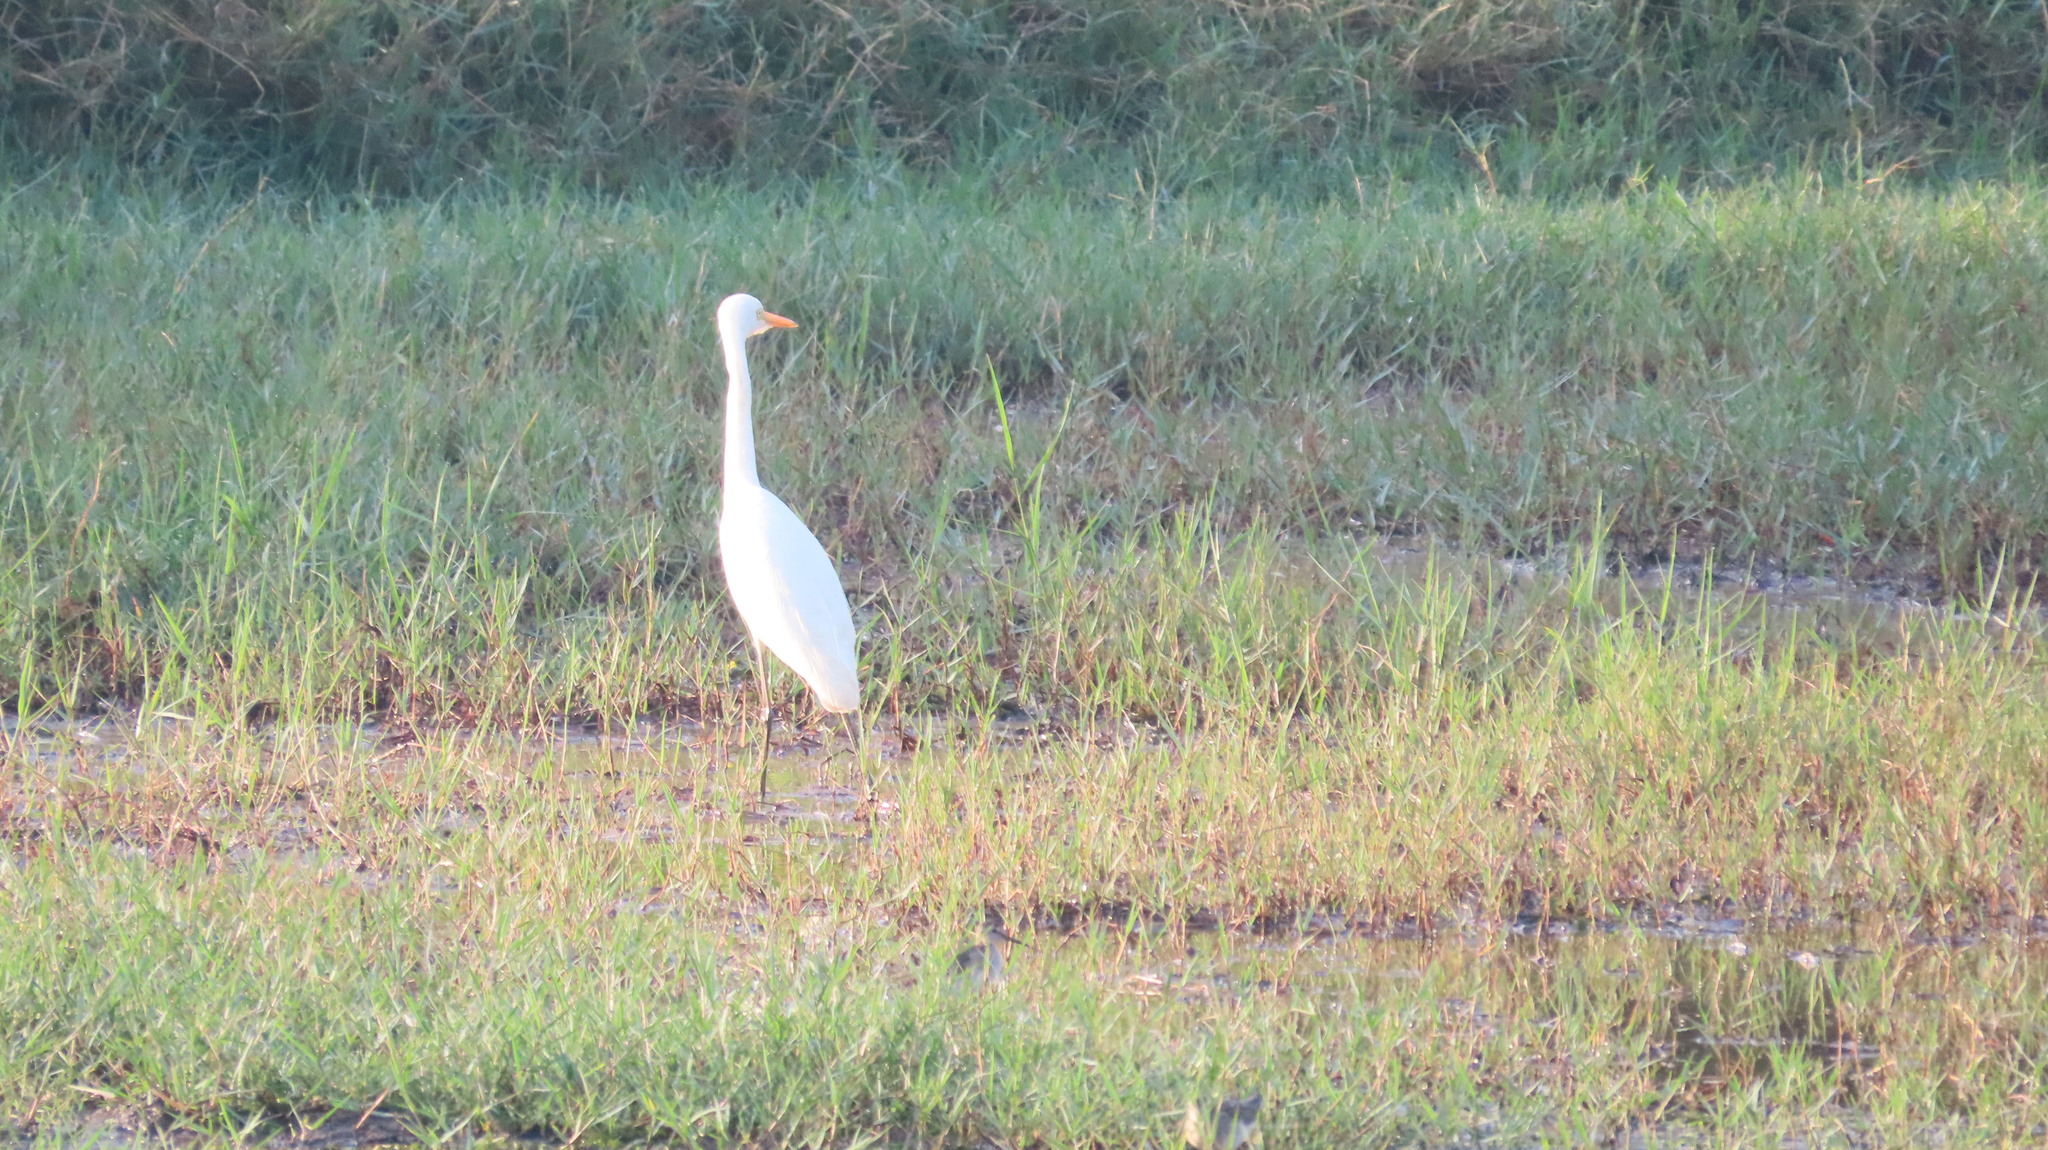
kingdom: Animalia
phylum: Chordata
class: Aves
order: Pelecaniformes
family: Ardeidae
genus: Egretta
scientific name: Egretta intermedia
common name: Intermediate egret
